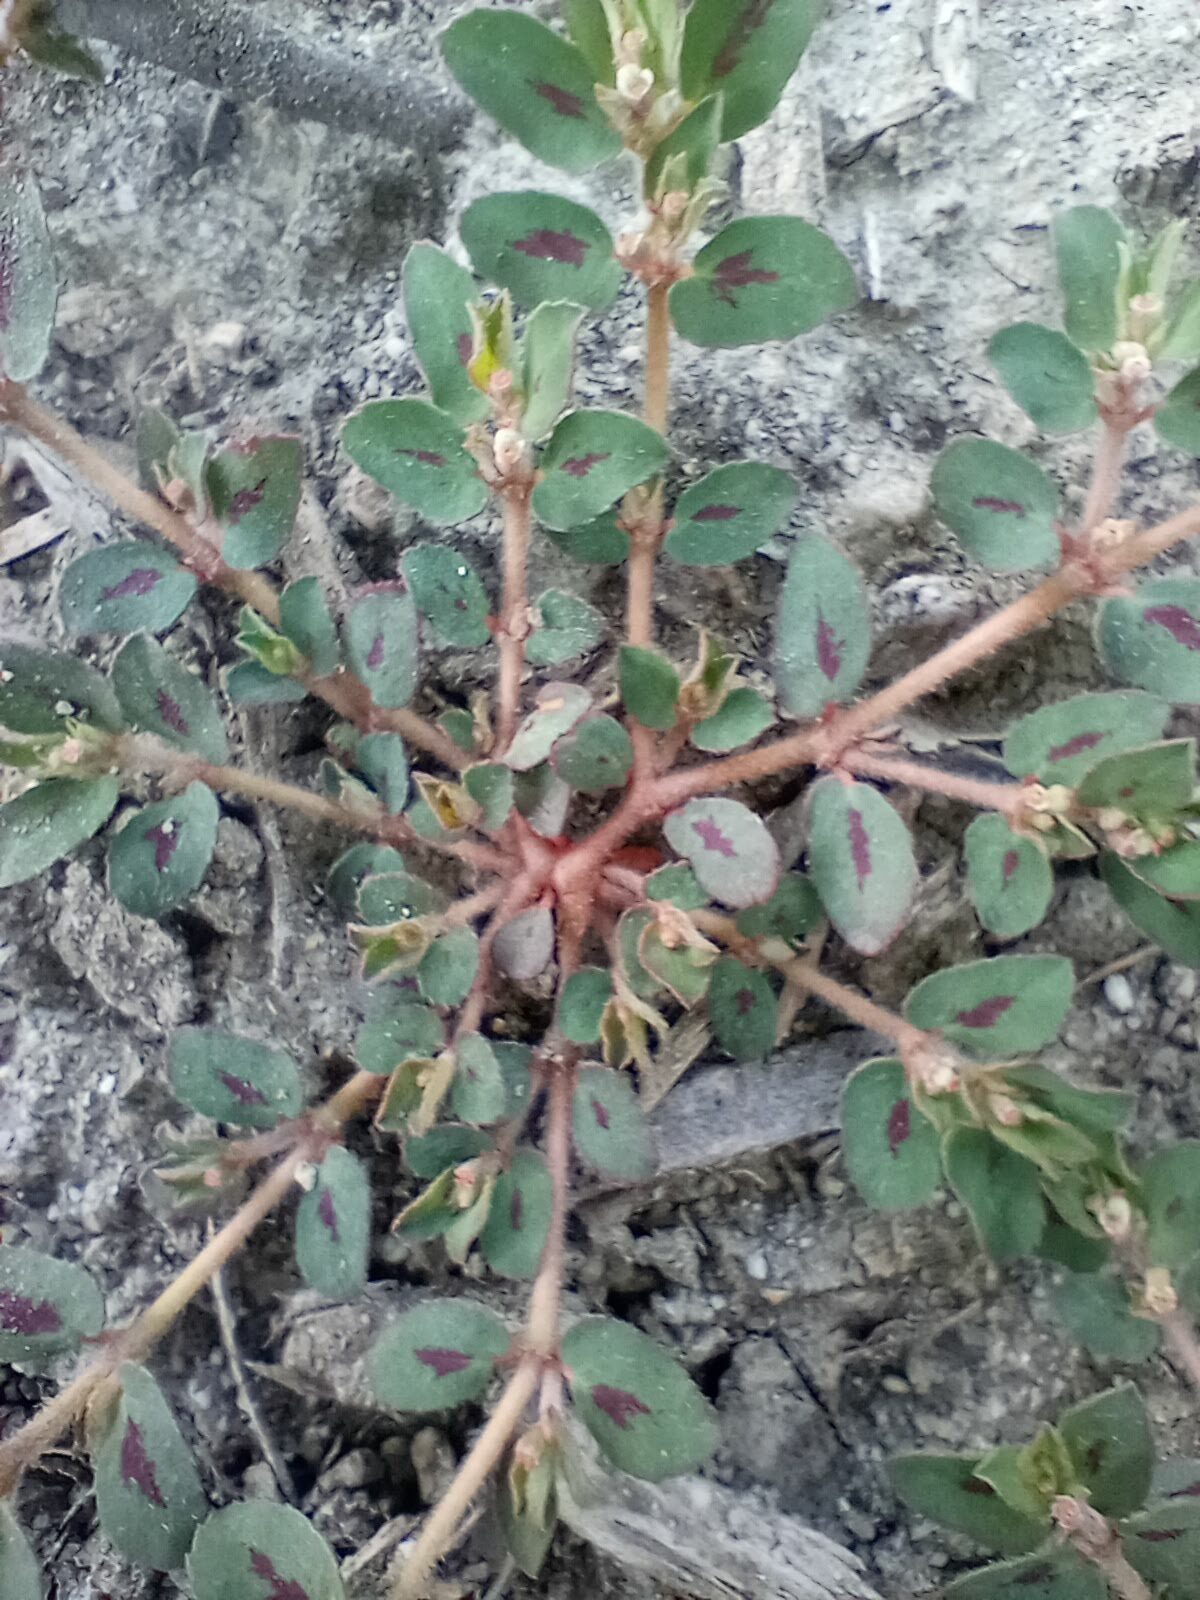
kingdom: Plantae
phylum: Tracheophyta
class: Magnoliopsida
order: Malpighiales
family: Euphorbiaceae
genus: Euphorbia
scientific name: Euphorbia maculata
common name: Spotted spurge
